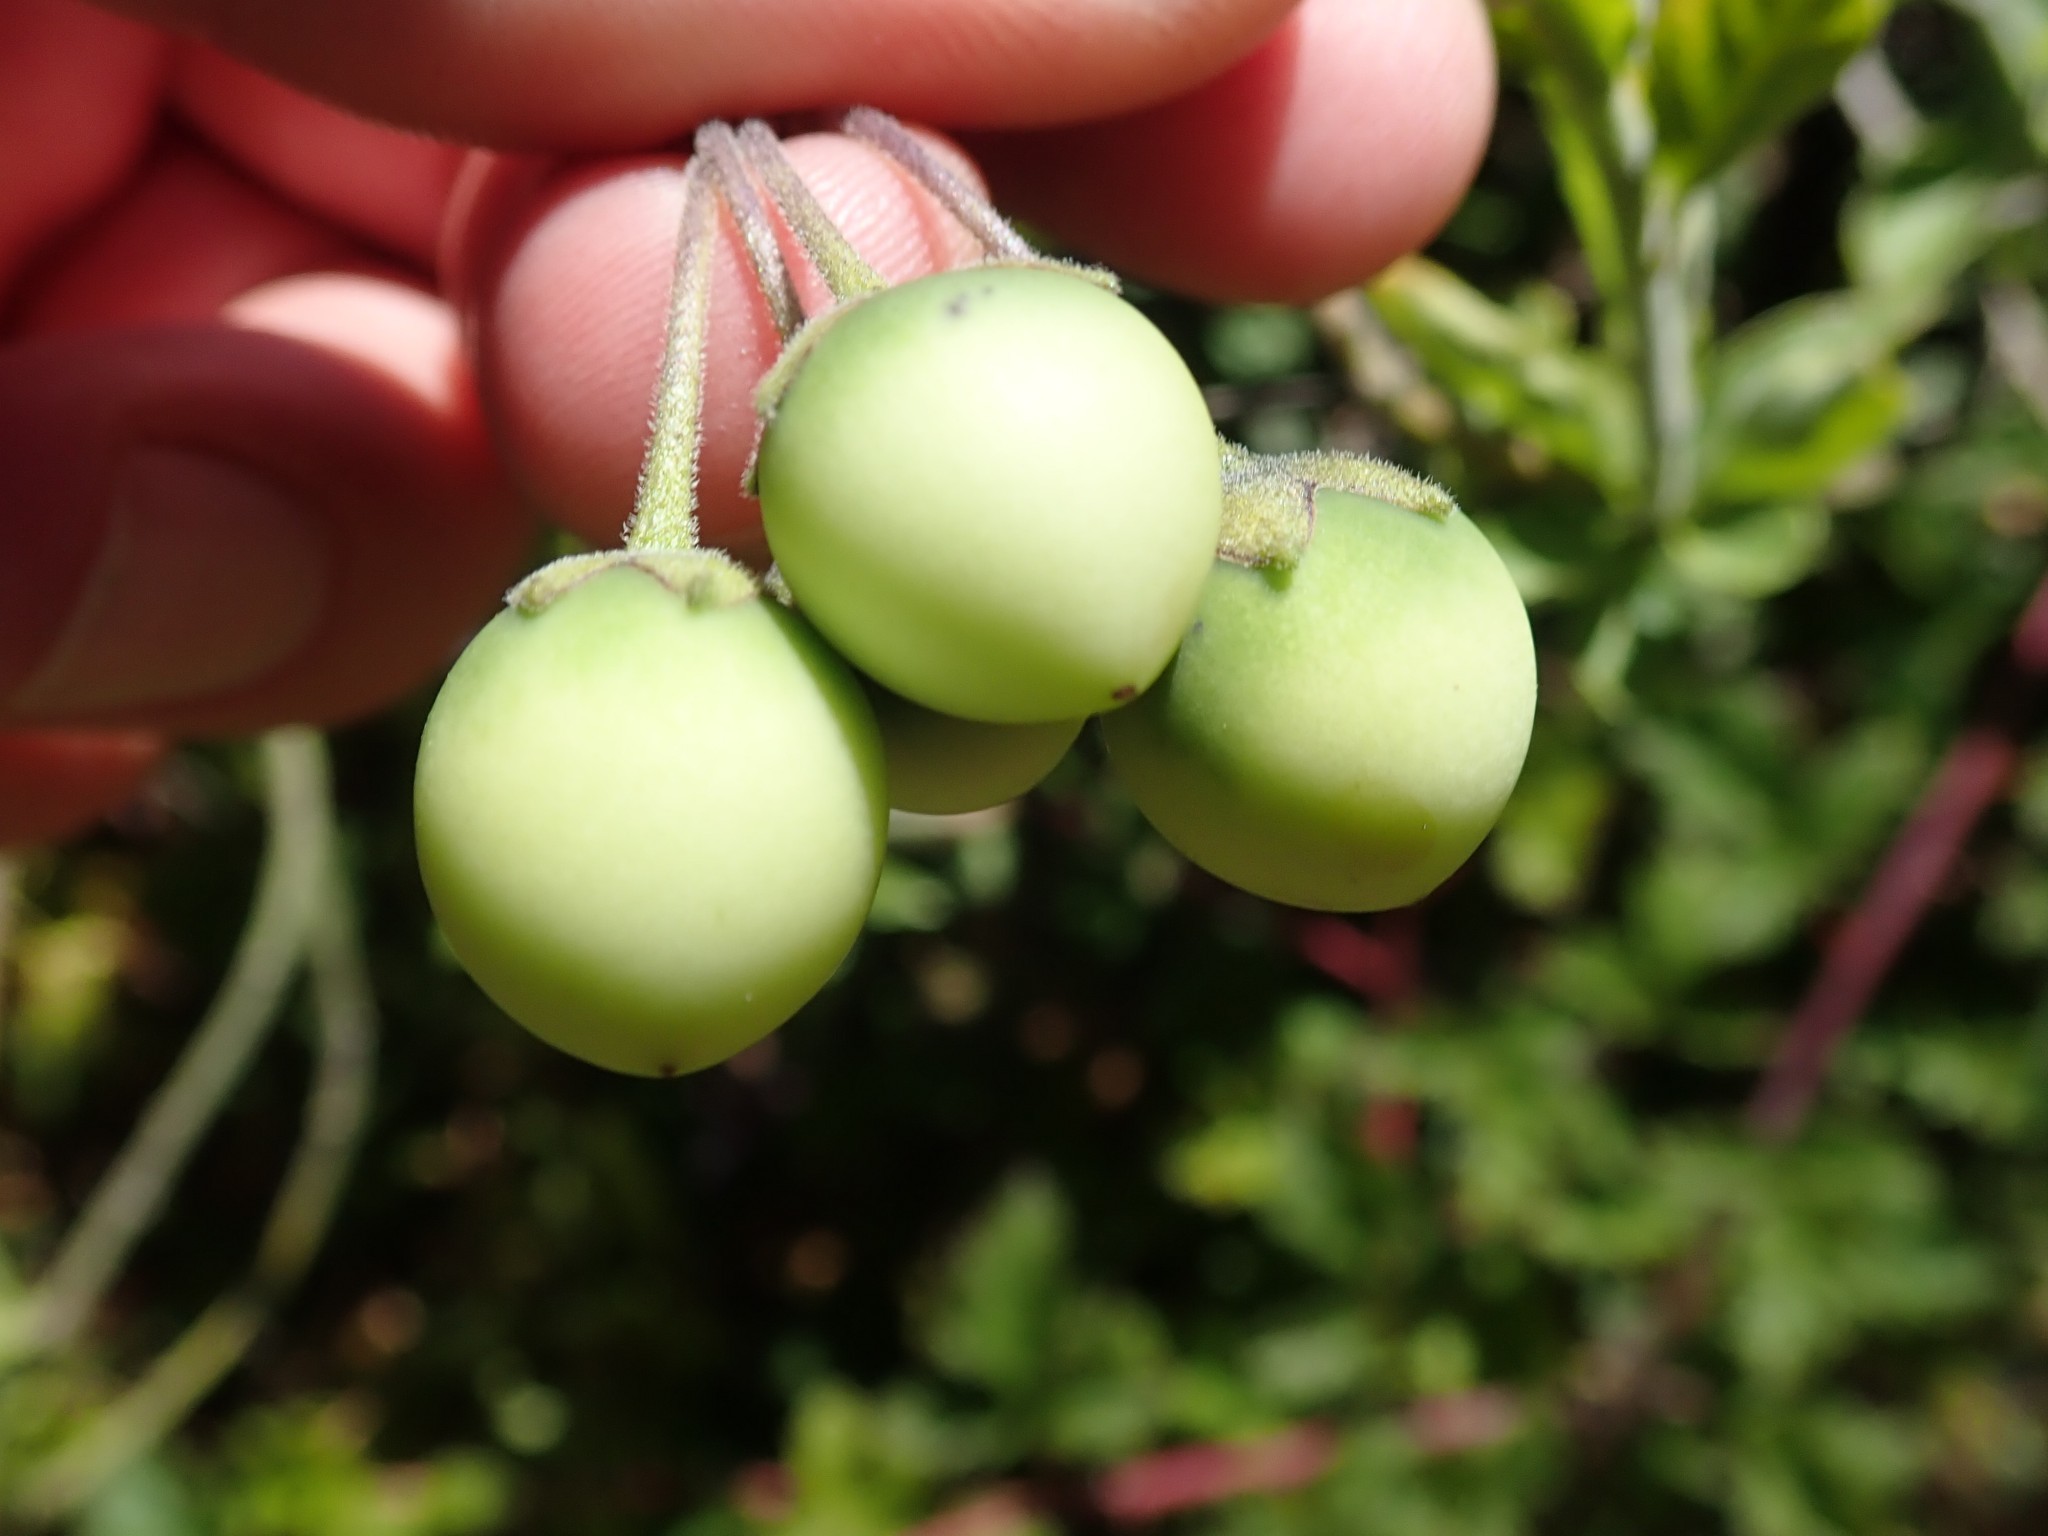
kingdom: Plantae
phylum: Tracheophyta
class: Magnoliopsida
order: Solanales
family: Solanaceae
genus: Solanum
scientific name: Solanum umbelliferum
